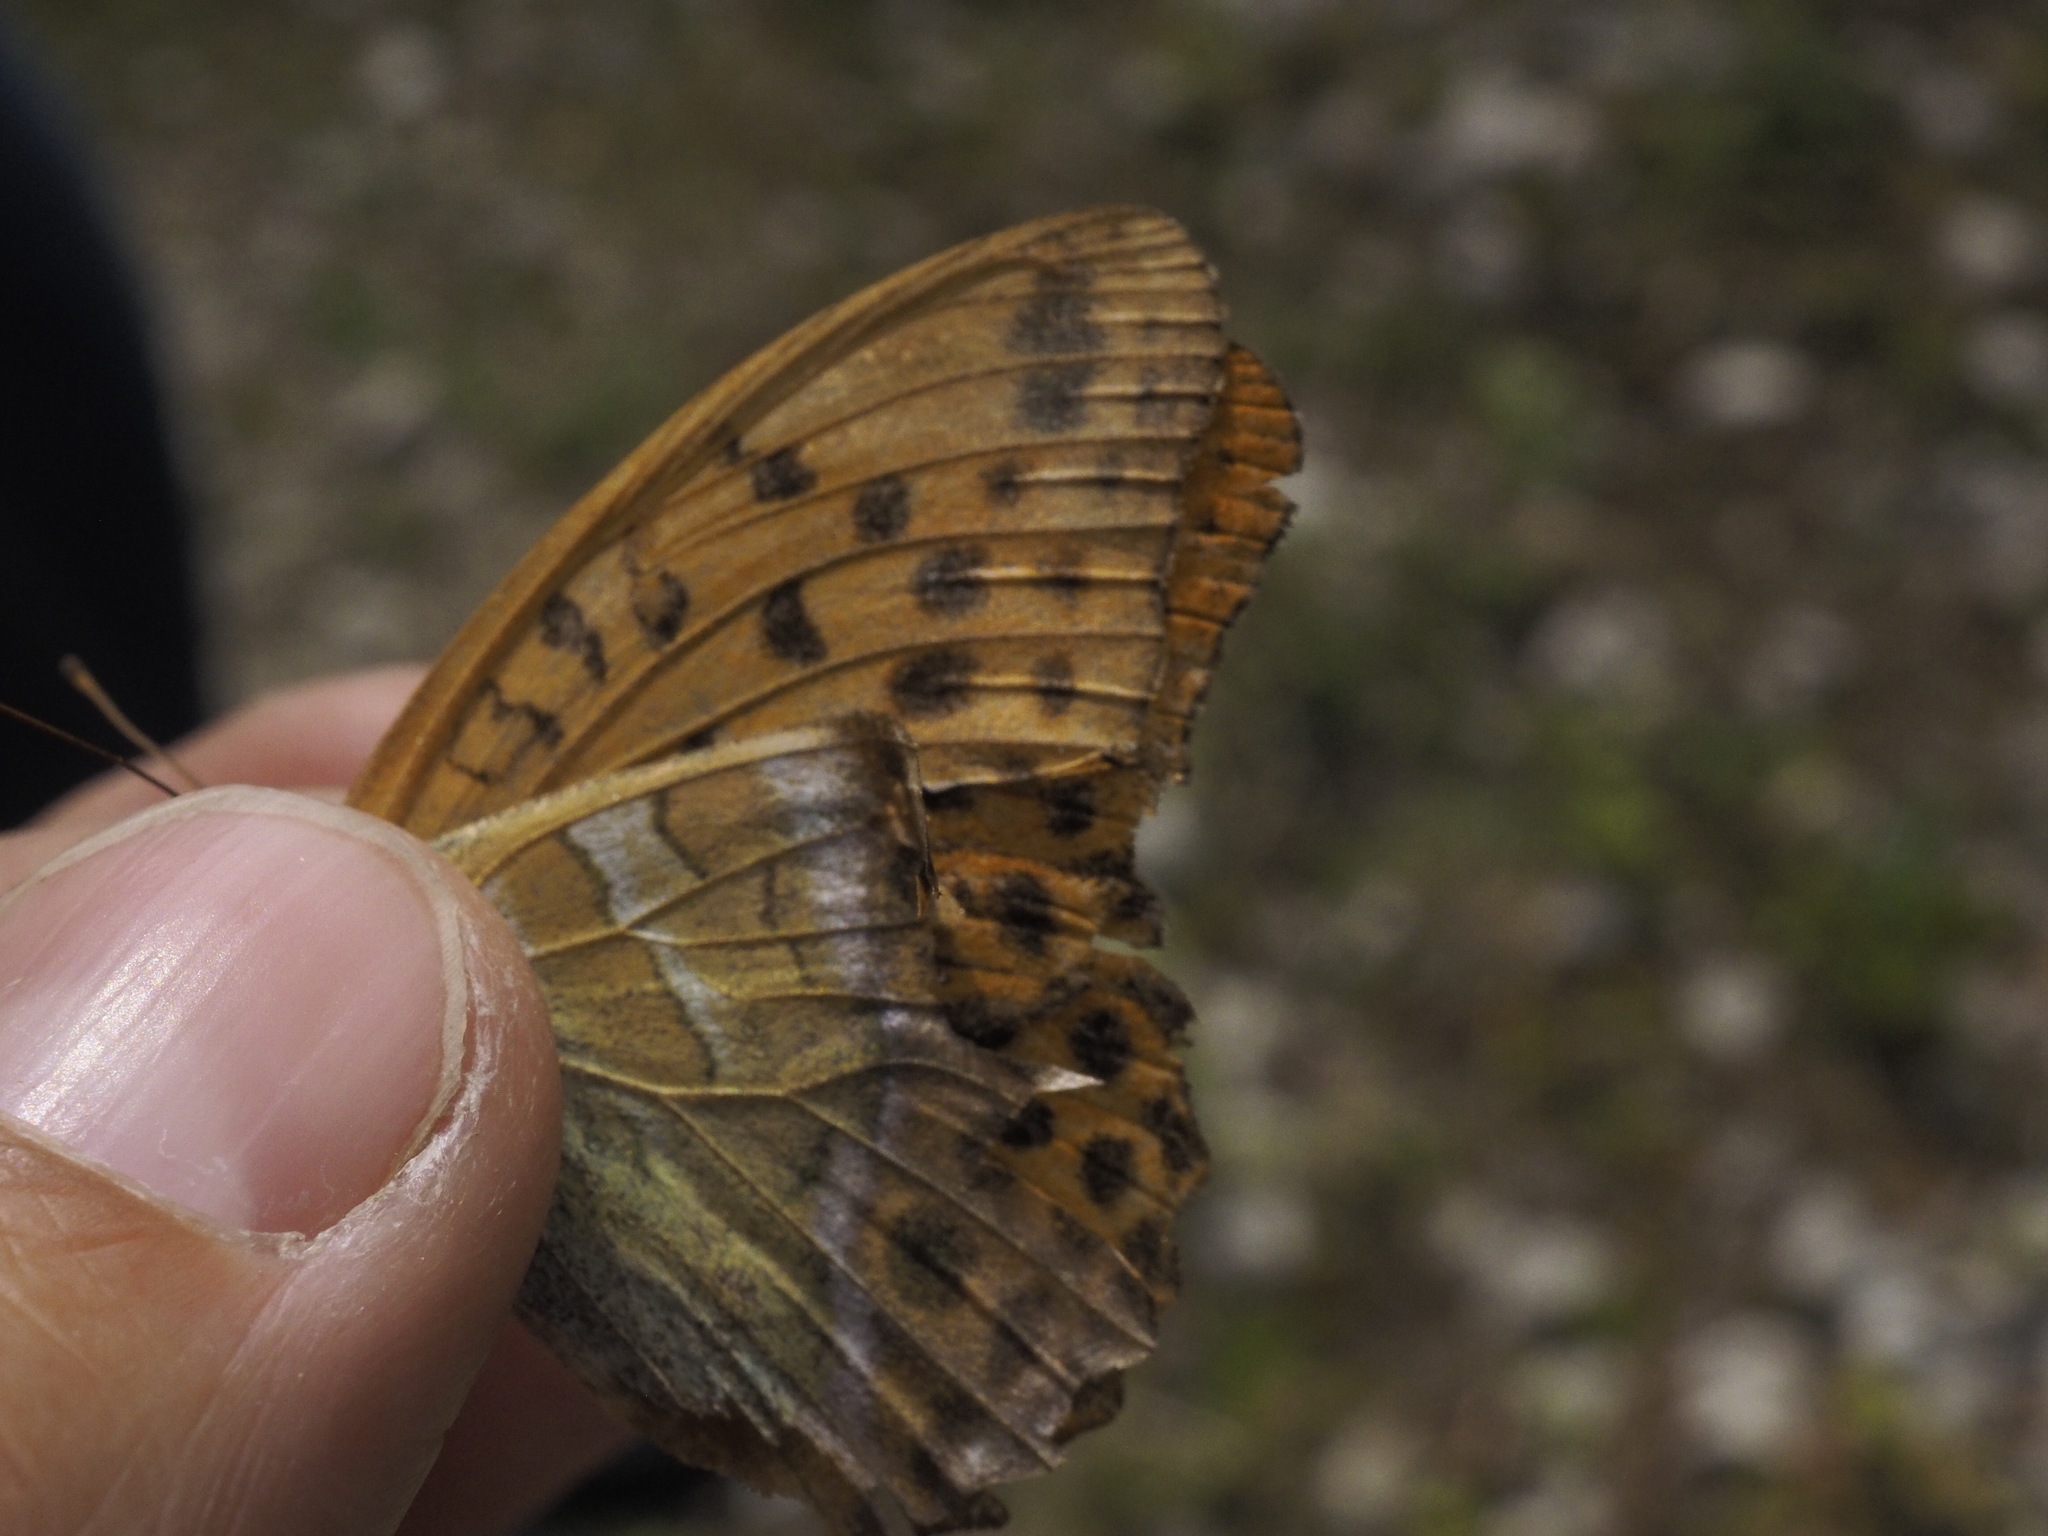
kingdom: Animalia
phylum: Arthropoda
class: Insecta
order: Lepidoptera
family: Nymphalidae
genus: Argynnis
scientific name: Argynnis paphia
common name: Silver-washed fritillary
